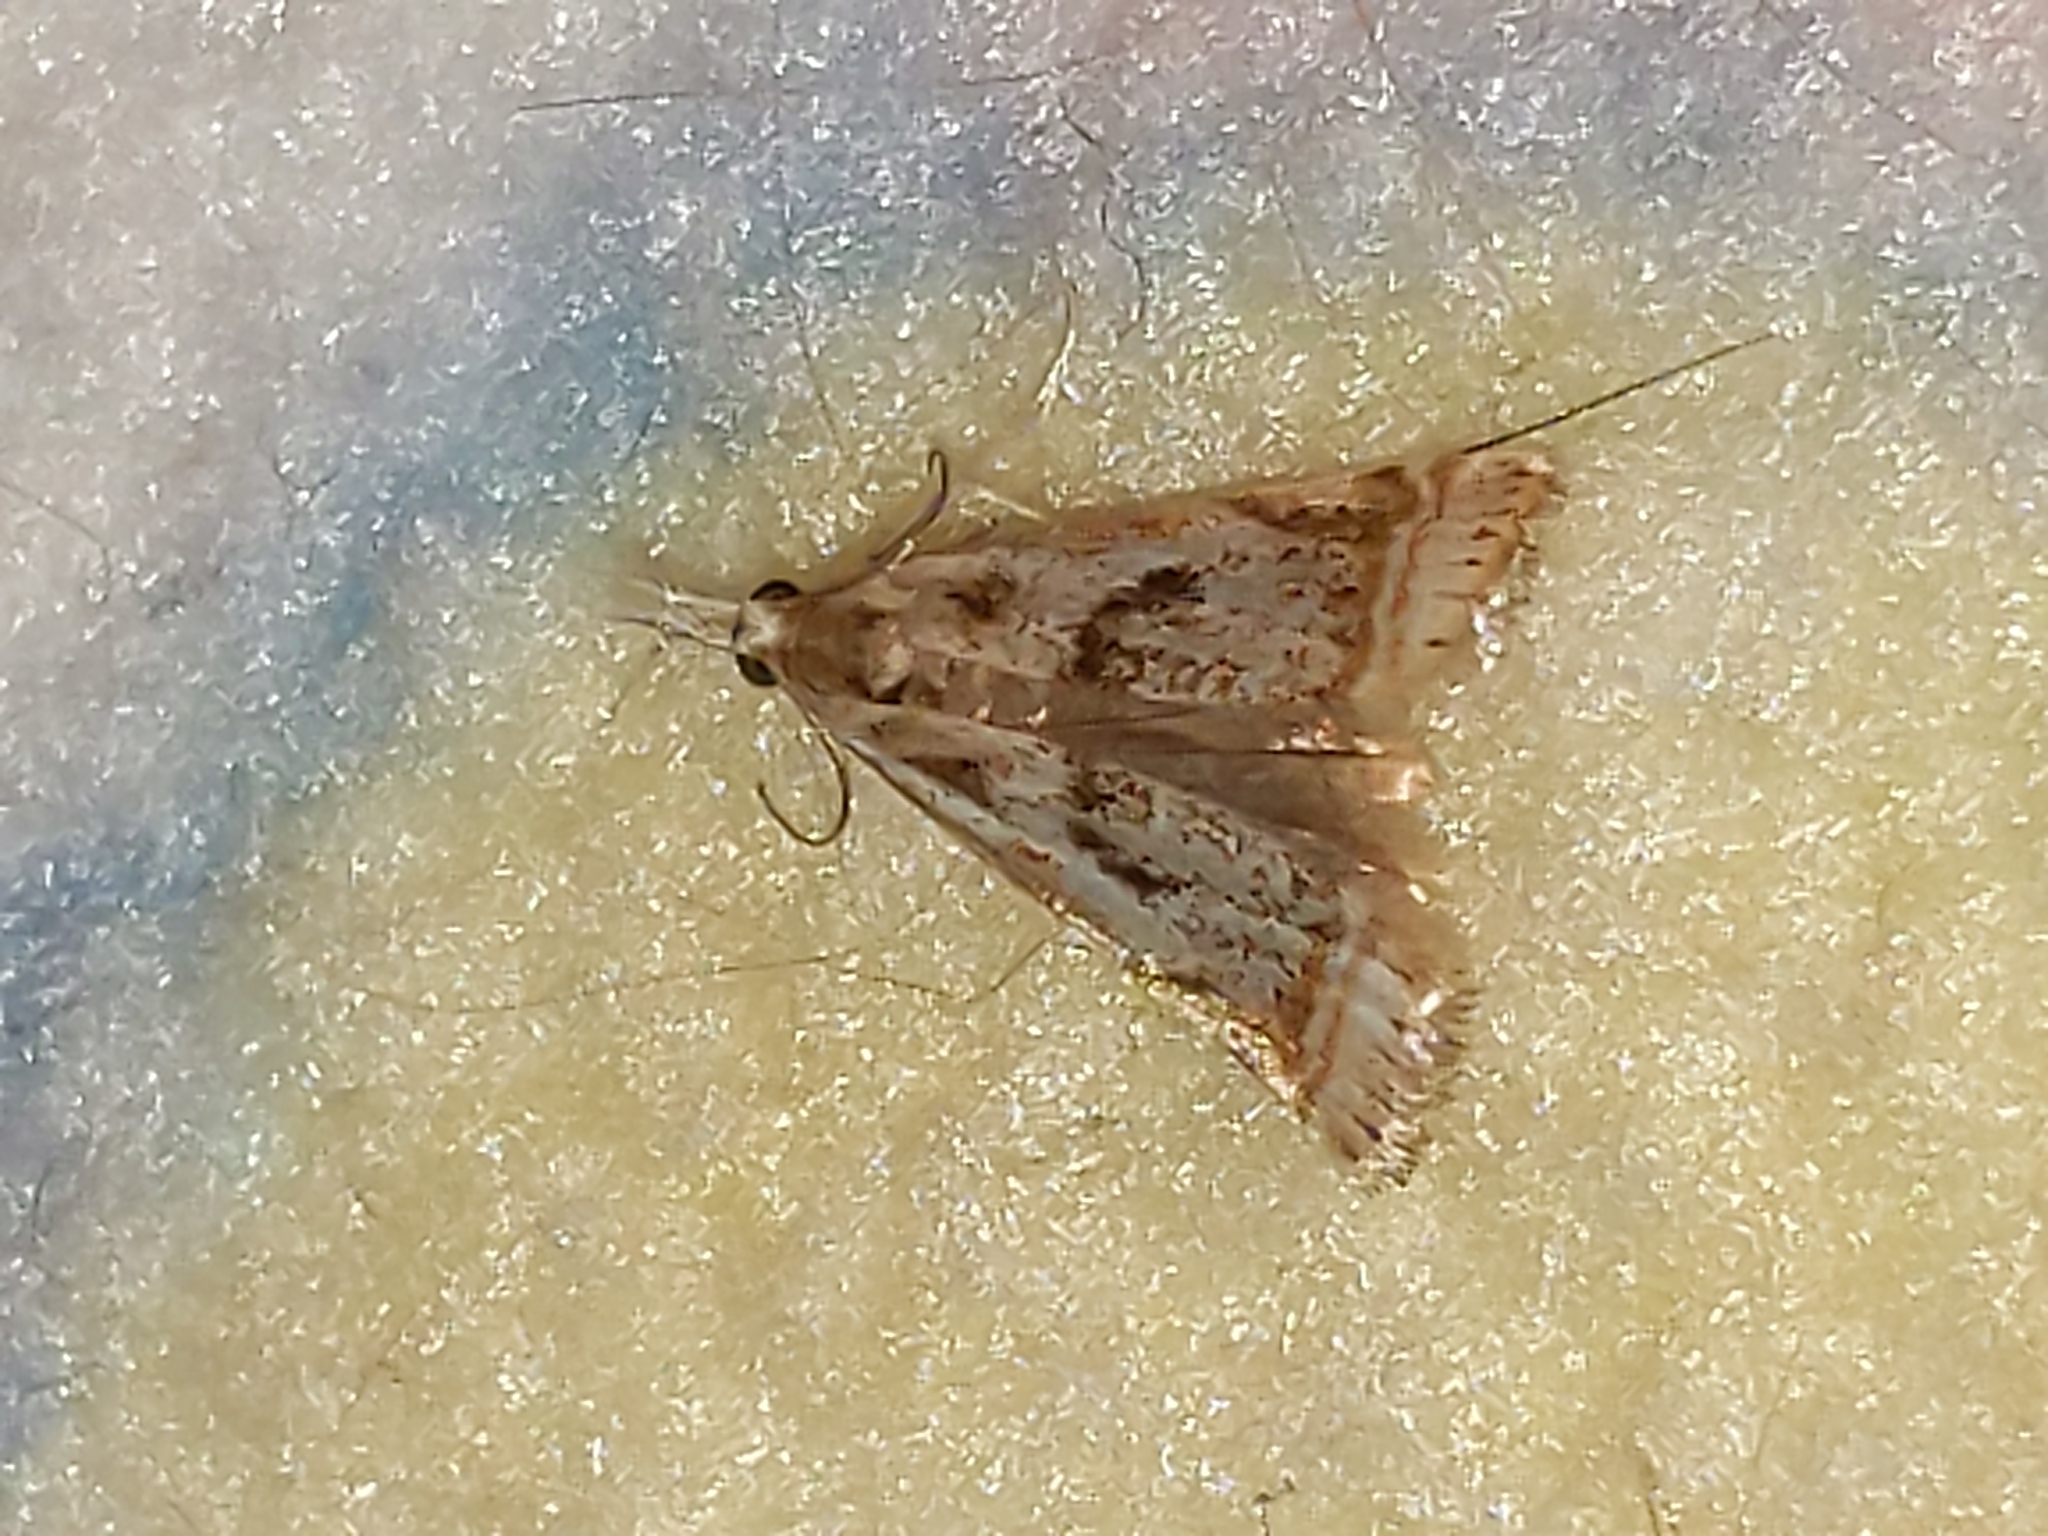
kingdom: Animalia
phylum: Arthropoda
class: Insecta
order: Lepidoptera
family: Crambidae
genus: Microcrambus
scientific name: Microcrambus elegans
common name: Elegant grass-veneer
